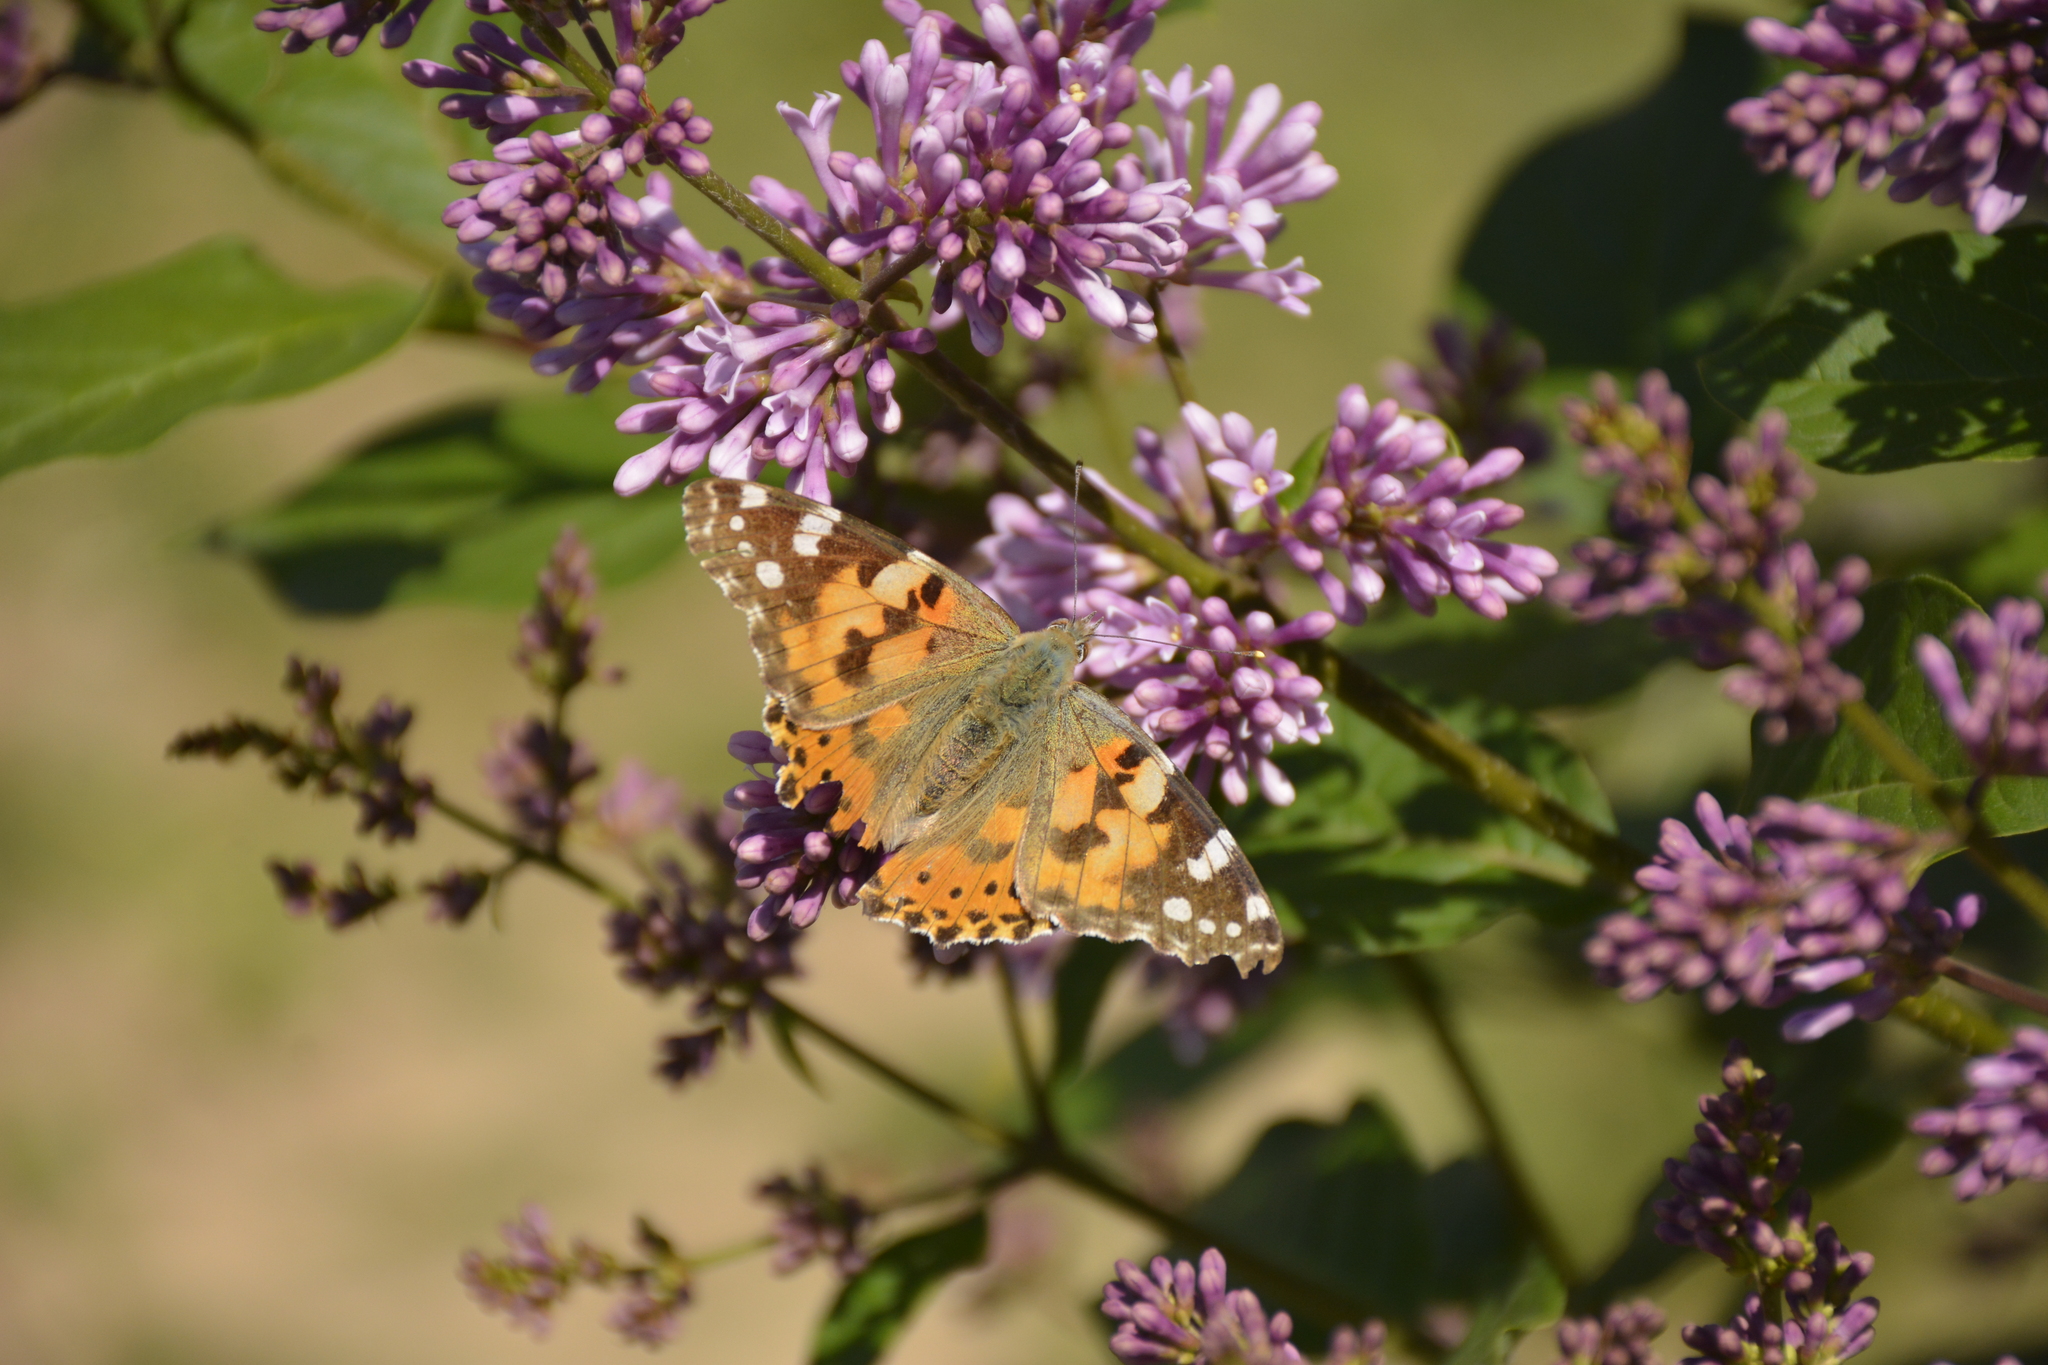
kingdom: Animalia
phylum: Arthropoda
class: Insecta
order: Lepidoptera
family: Nymphalidae
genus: Vanessa
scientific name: Vanessa cardui
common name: Painted lady
